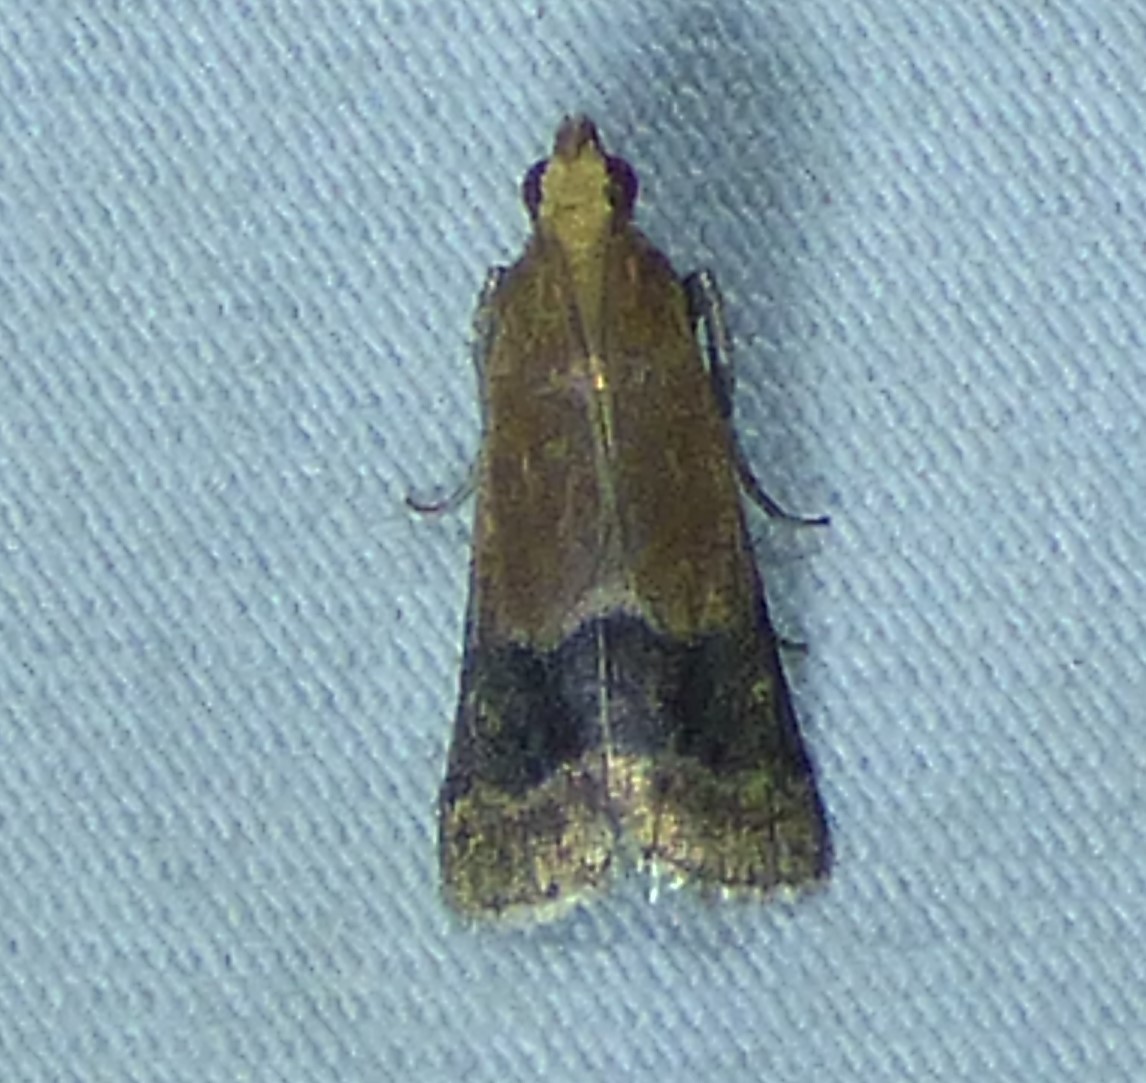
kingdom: Animalia
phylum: Arthropoda
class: Insecta
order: Lepidoptera
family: Pyralidae
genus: Eulogia
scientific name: Eulogia ochrifrontella
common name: Broad-banded eulogia moth
